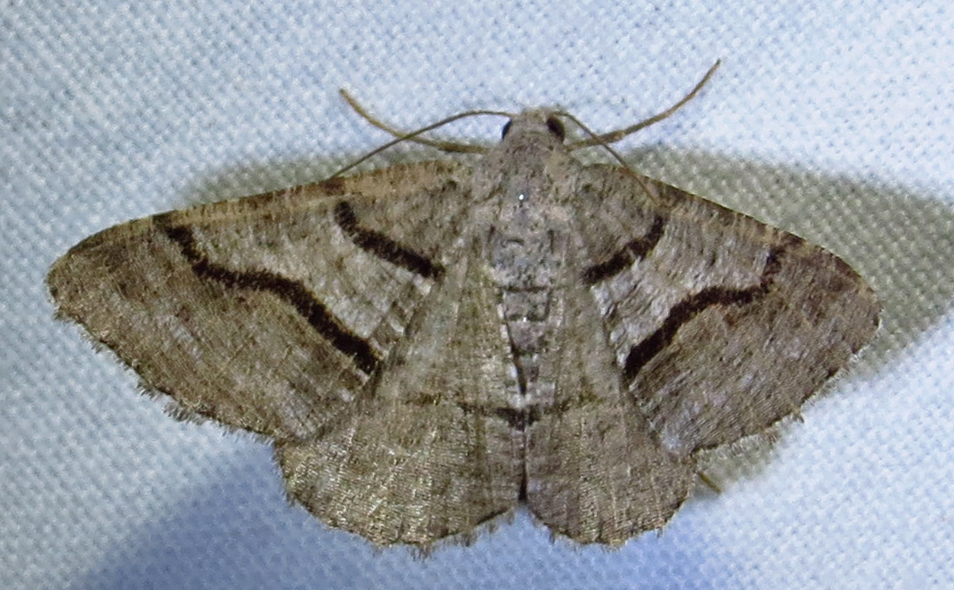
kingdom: Animalia
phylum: Arthropoda
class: Insecta
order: Lepidoptera
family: Geometridae
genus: Digrammia
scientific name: Digrammia continuata
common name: Curve-lined angle
